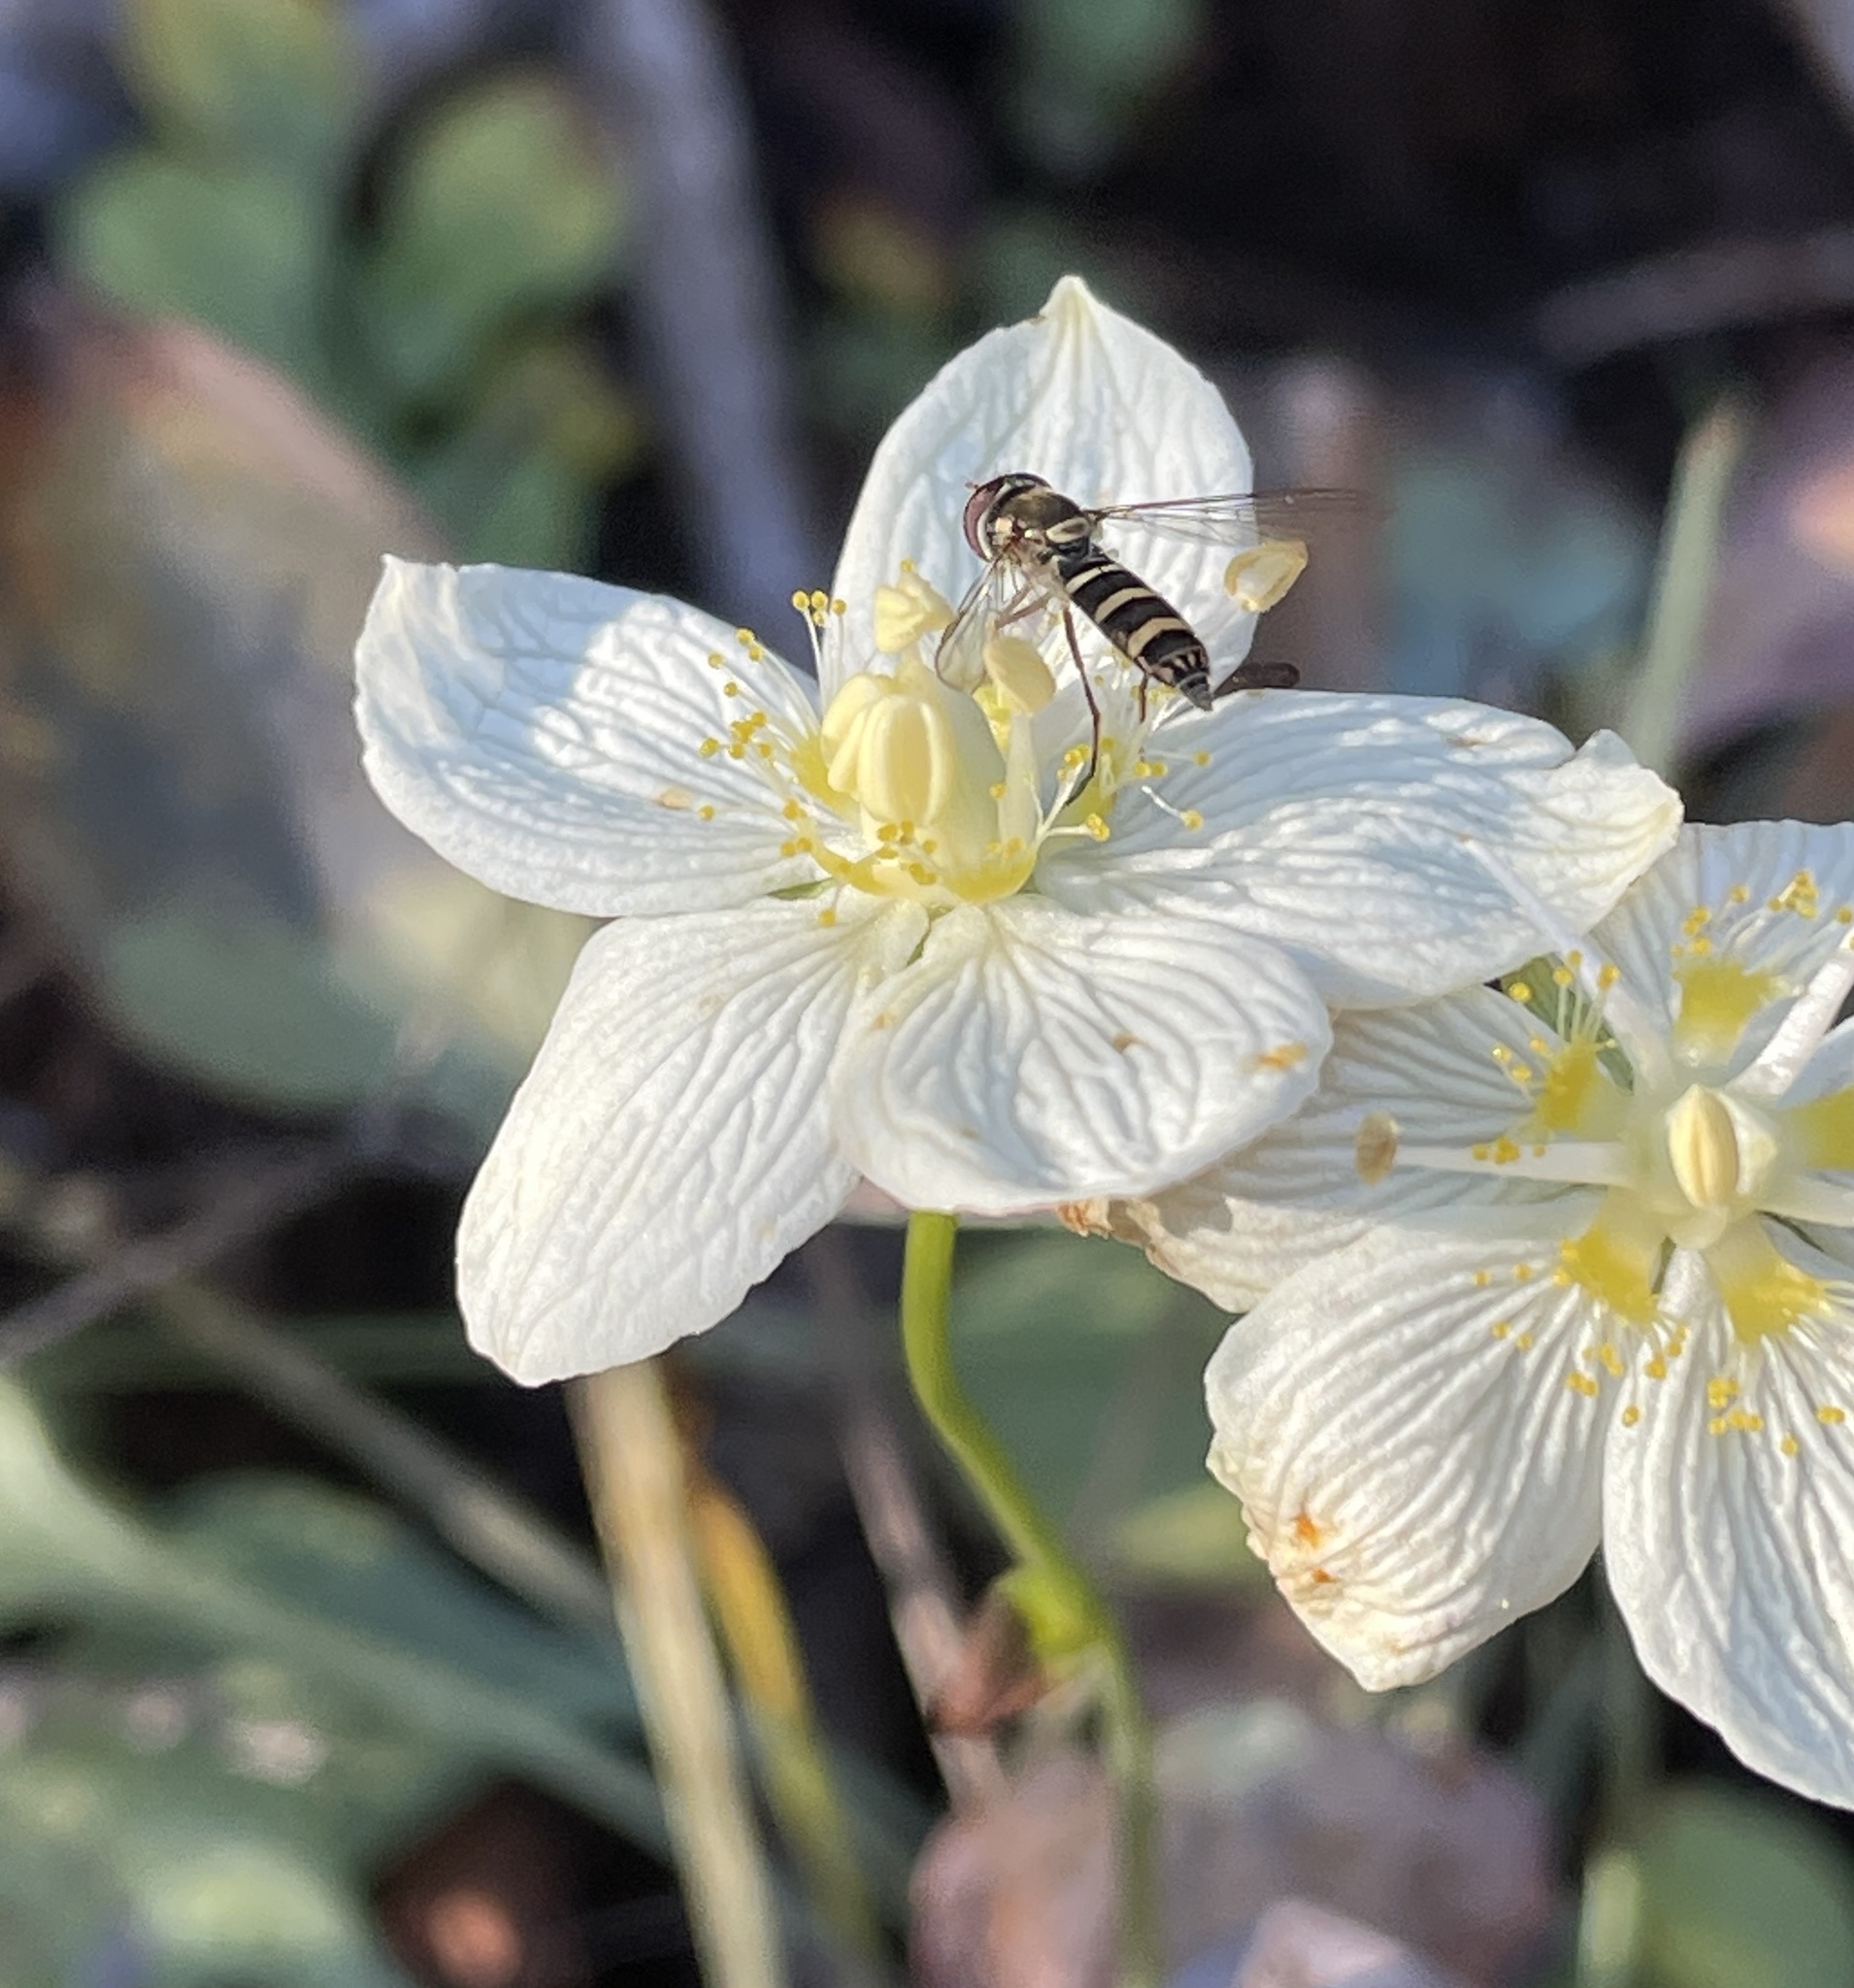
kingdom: Animalia
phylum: Arthropoda
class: Insecta
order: Diptera
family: Syrphidae
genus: Fazia
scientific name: Fazia micrura
